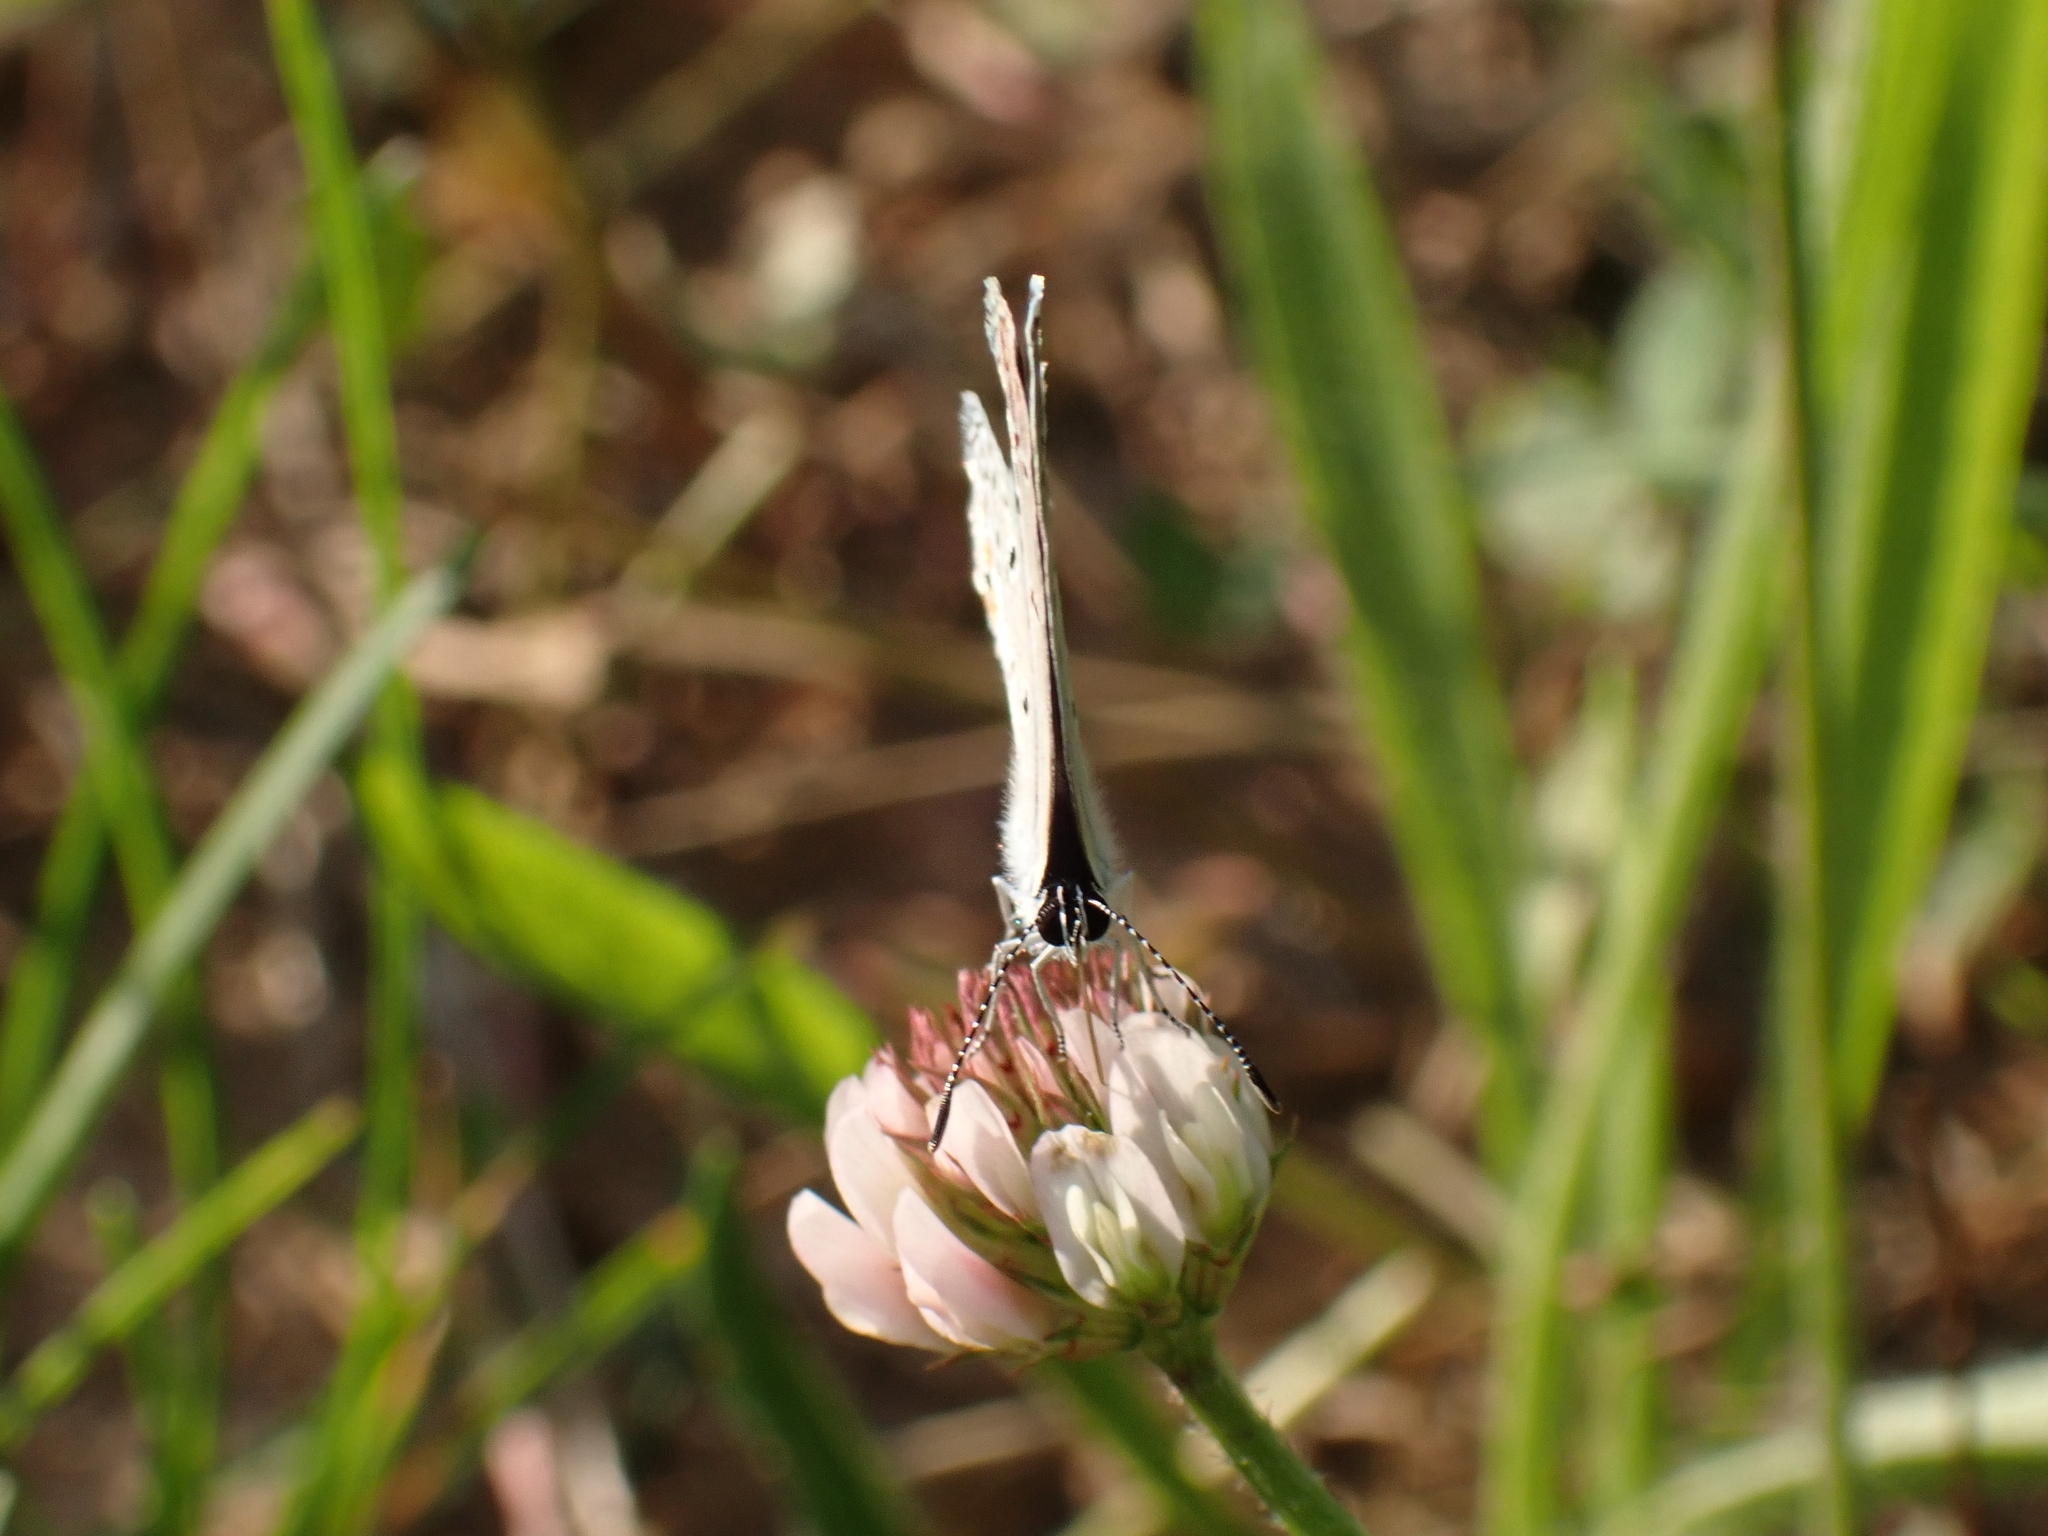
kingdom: Animalia
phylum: Arthropoda
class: Insecta
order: Lepidoptera
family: Lycaenidae
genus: Elkalyce
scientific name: Elkalyce comyntas
